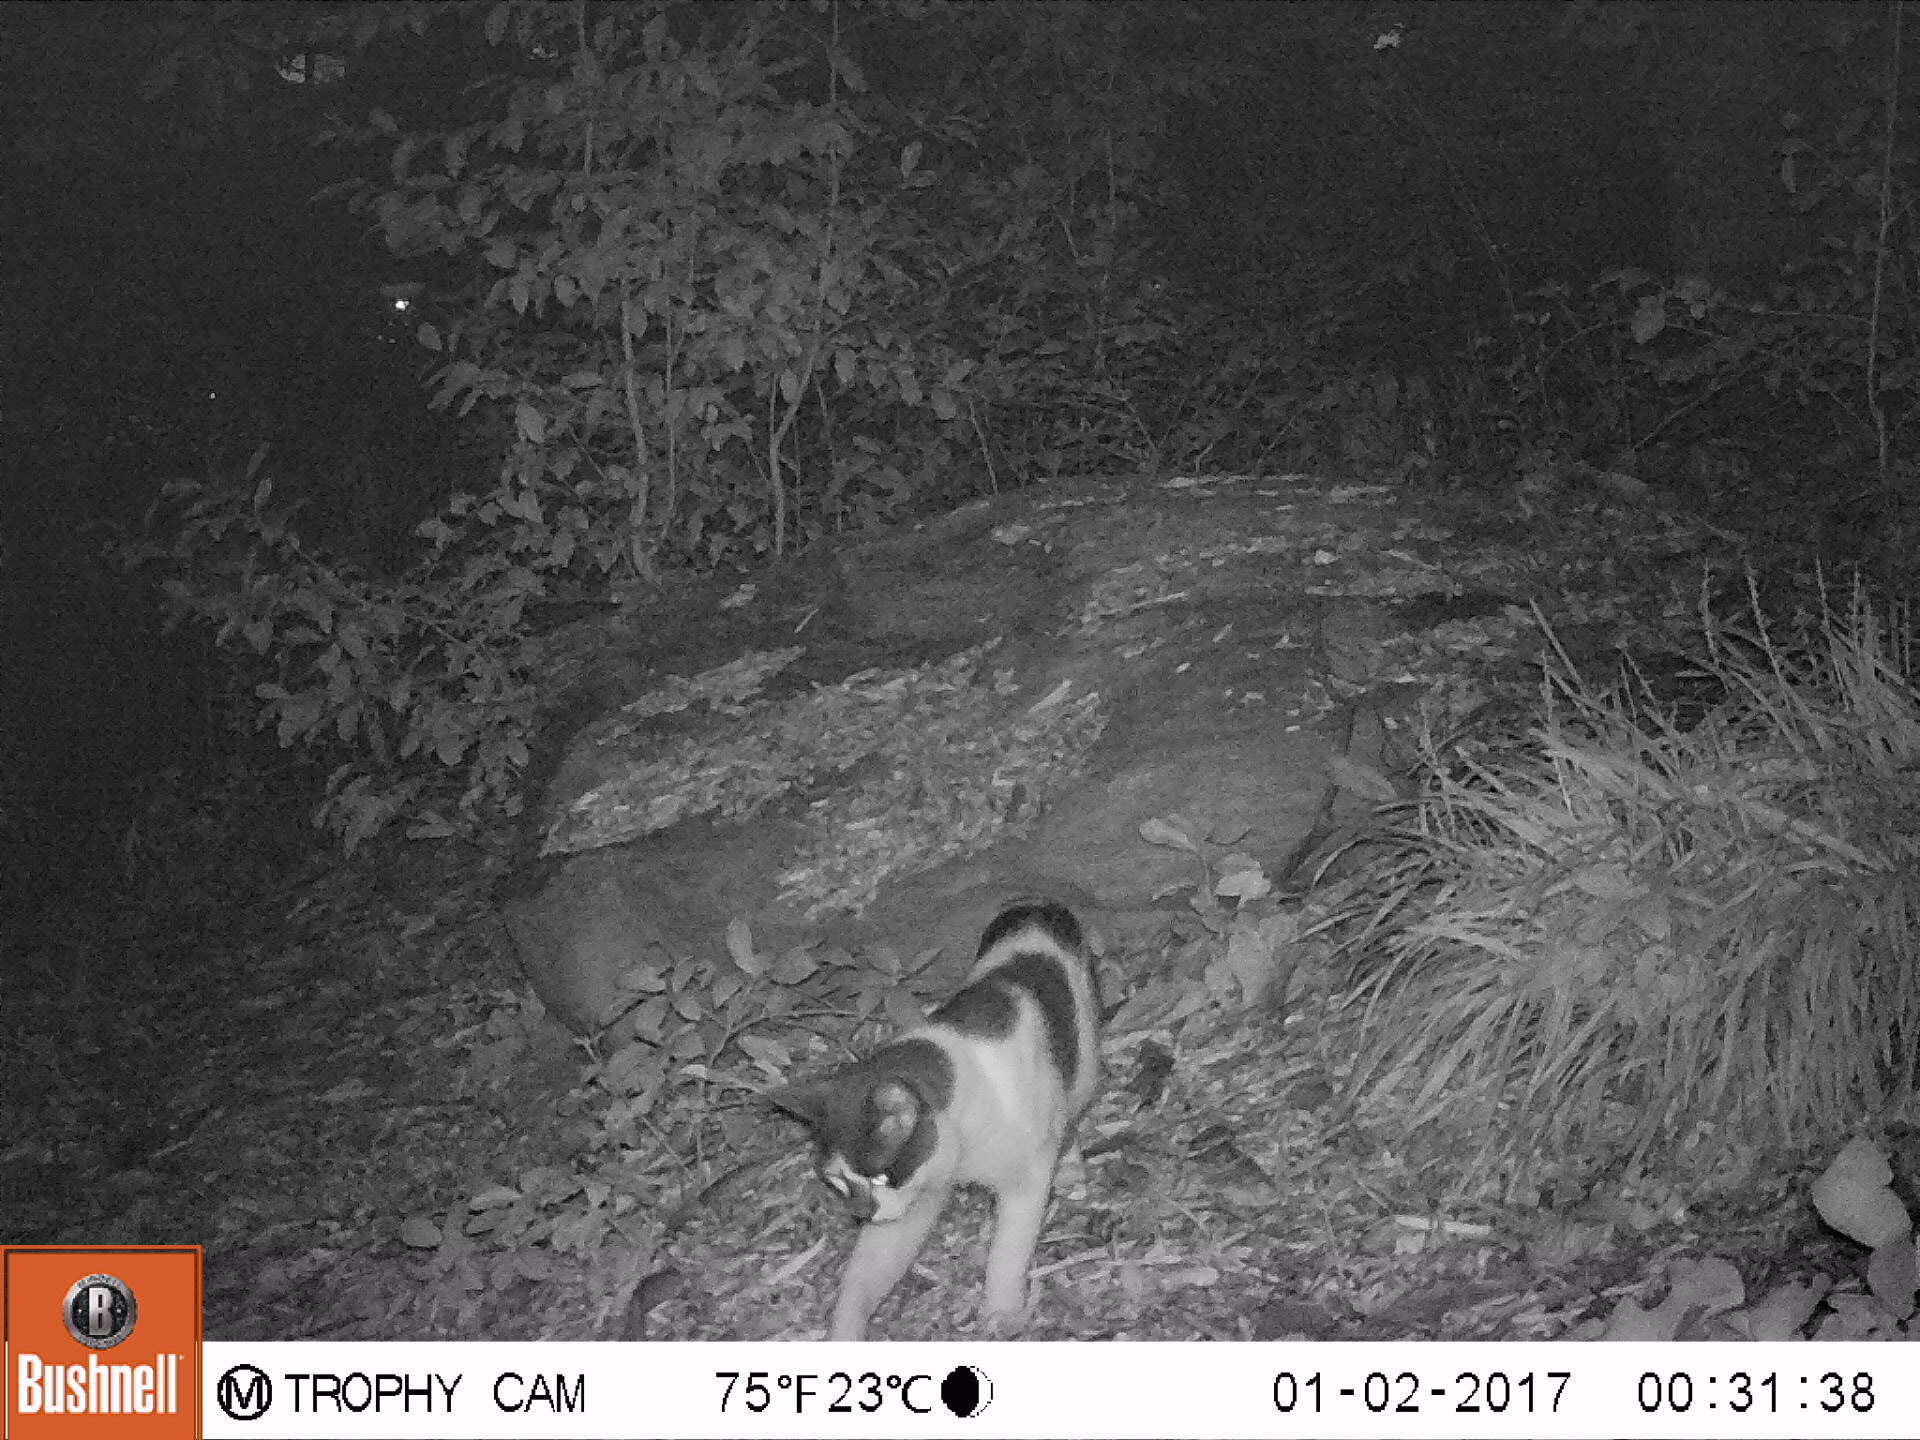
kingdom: Animalia
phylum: Chordata
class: Mammalia
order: Carnivora
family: Felidae
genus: Felis
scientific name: Felis catus
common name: Domestic cat
